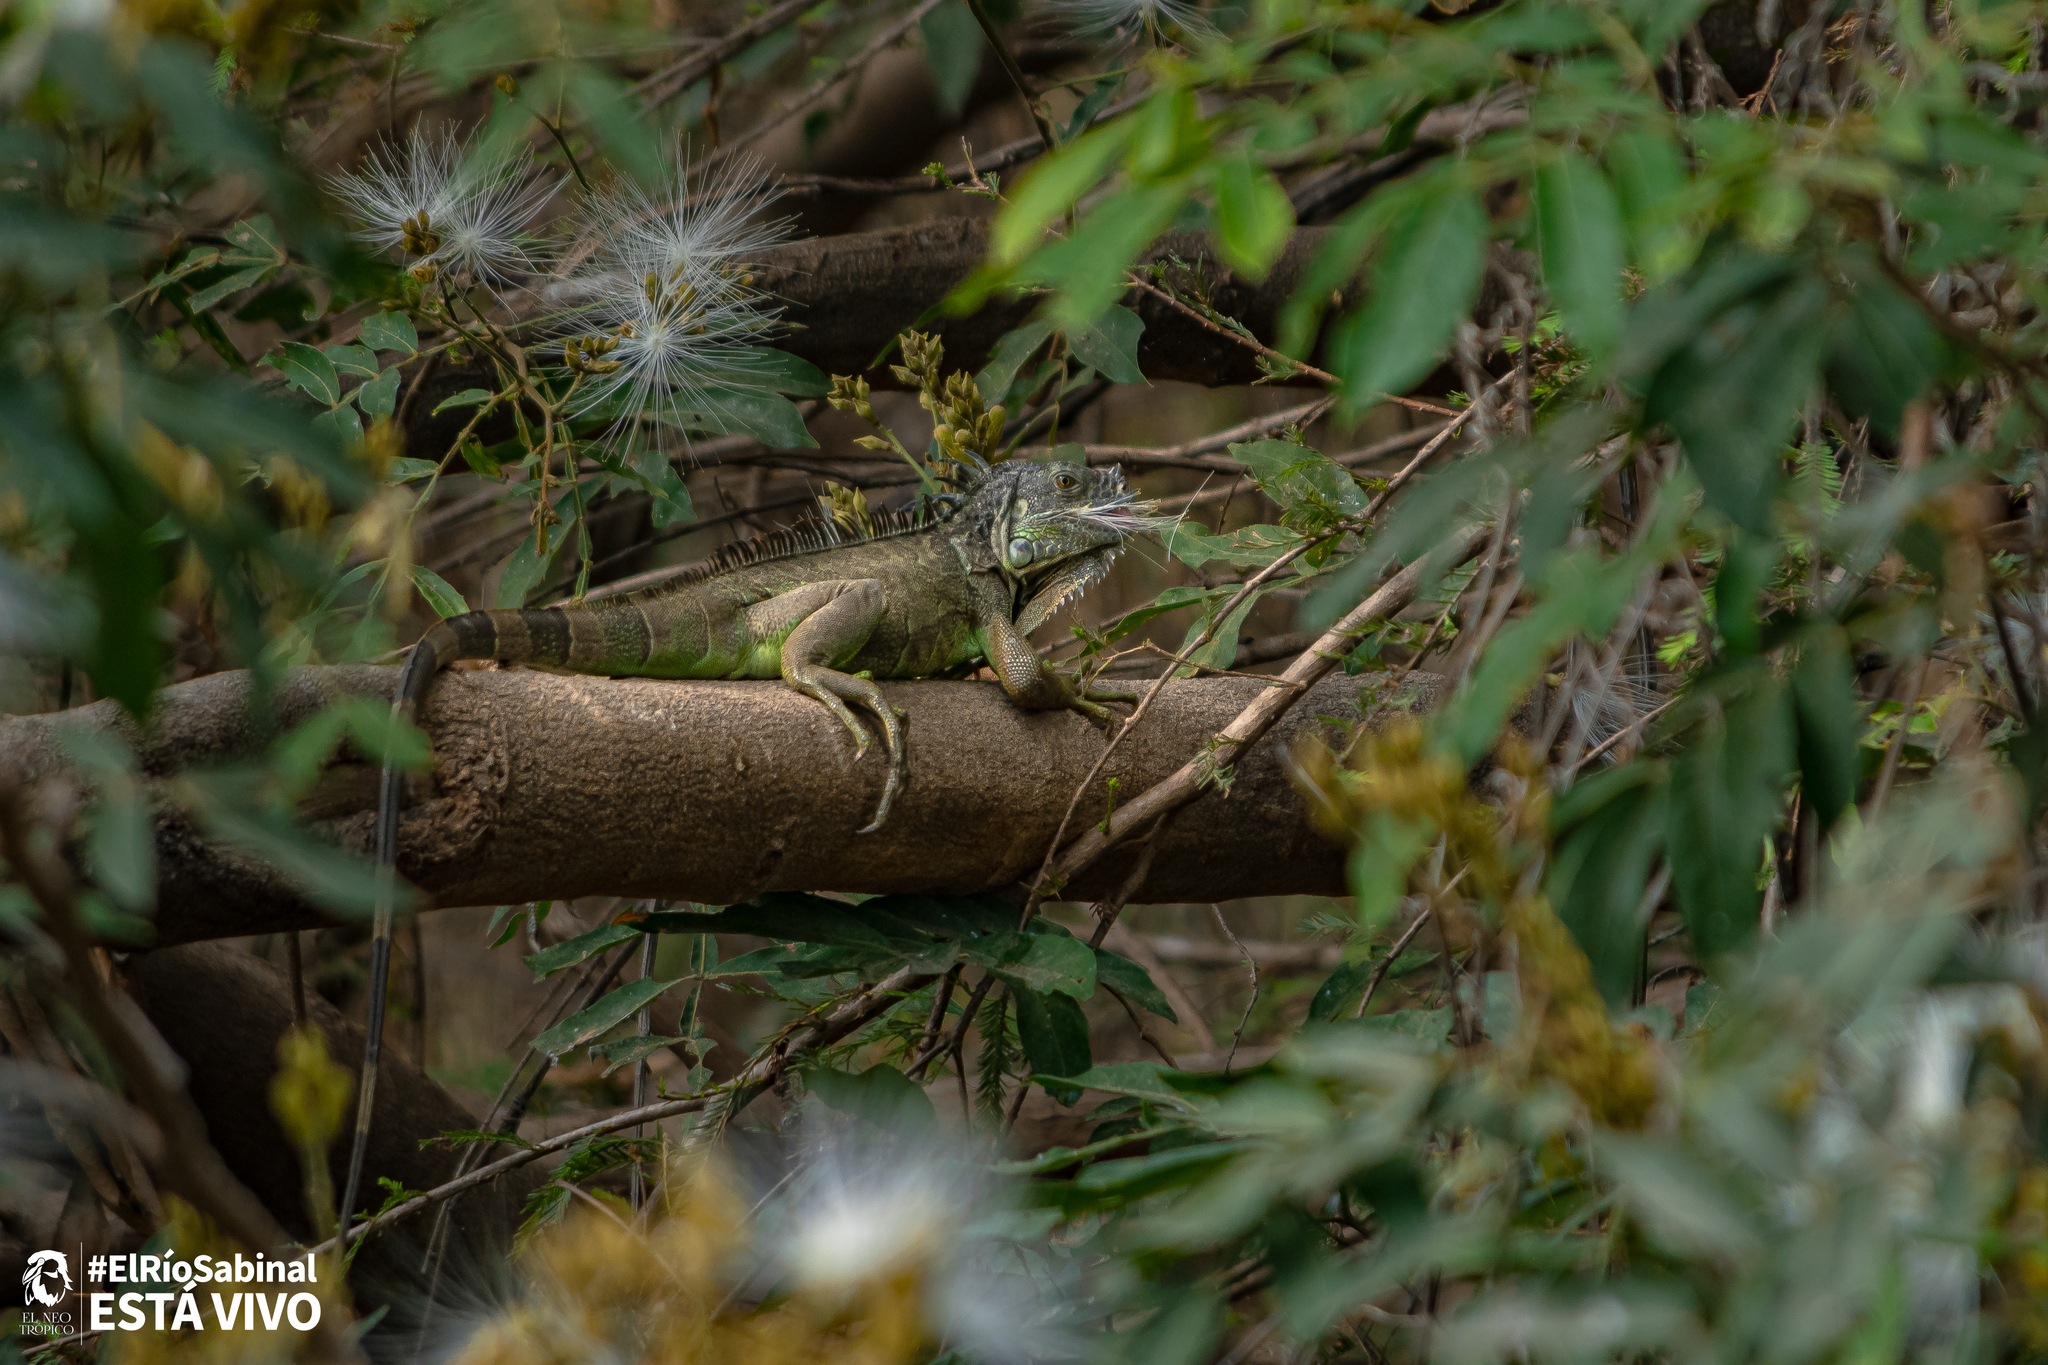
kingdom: Animalia
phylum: Chordata
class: Squamata
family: Iguanidae
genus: Iguana
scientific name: Iguana iguana
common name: Green iguana
